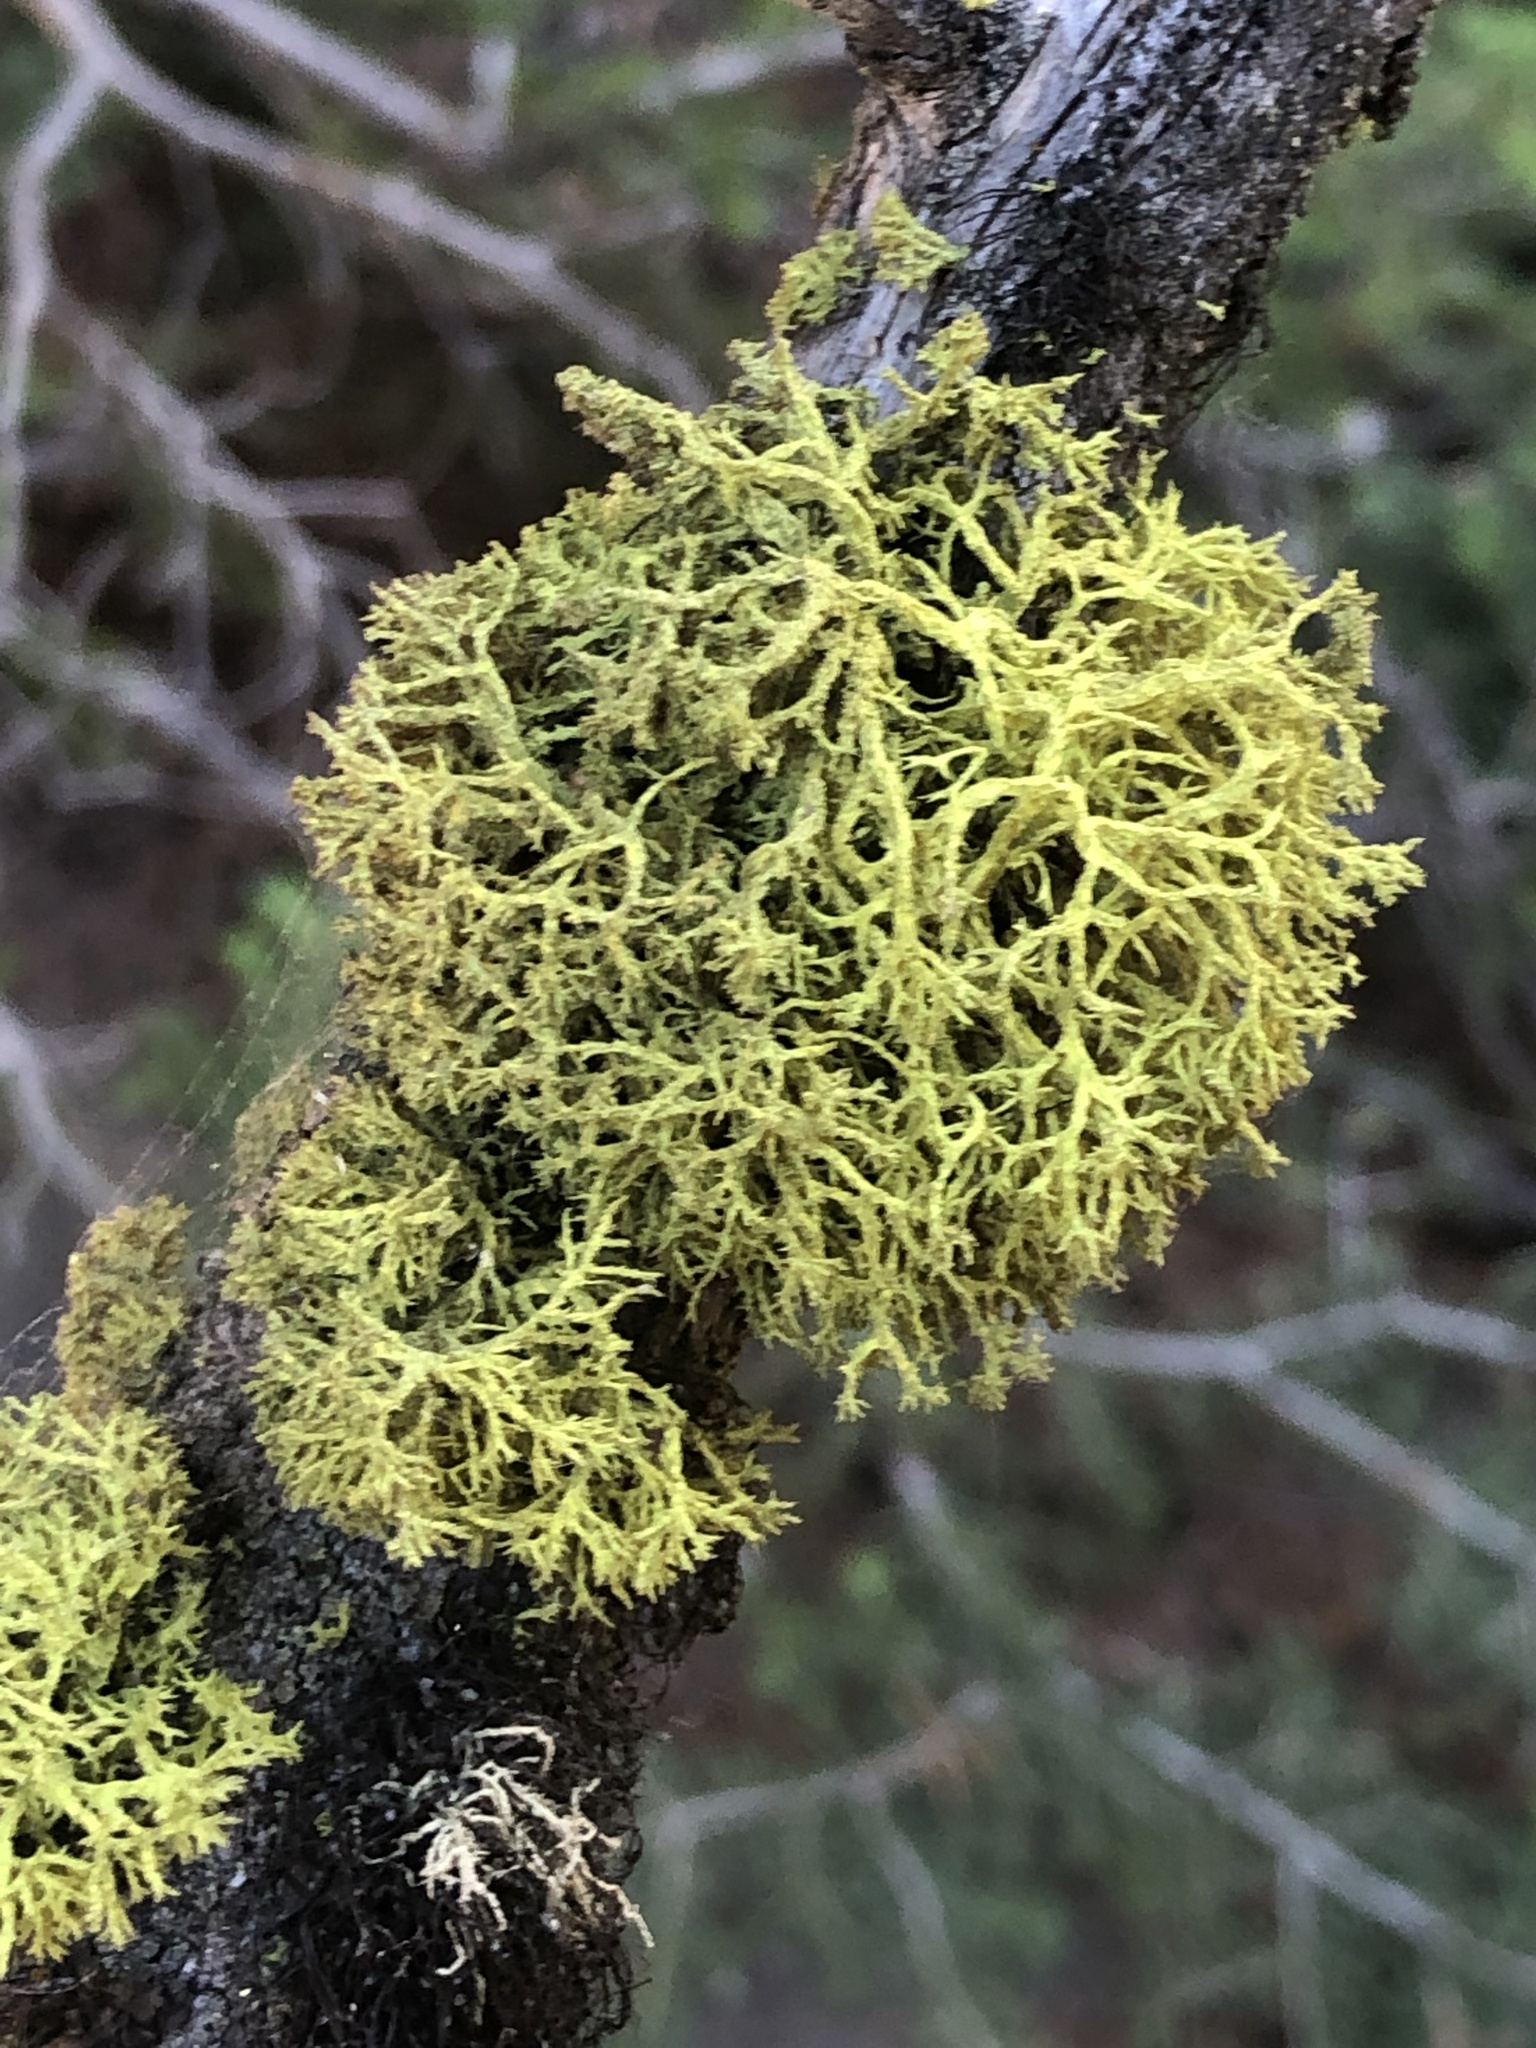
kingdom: Fungi
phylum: Ascomycota
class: Lecanoromycetes
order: Lecanorales
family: Parmeliaceae
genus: Letharia
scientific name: Letharia vulpina
